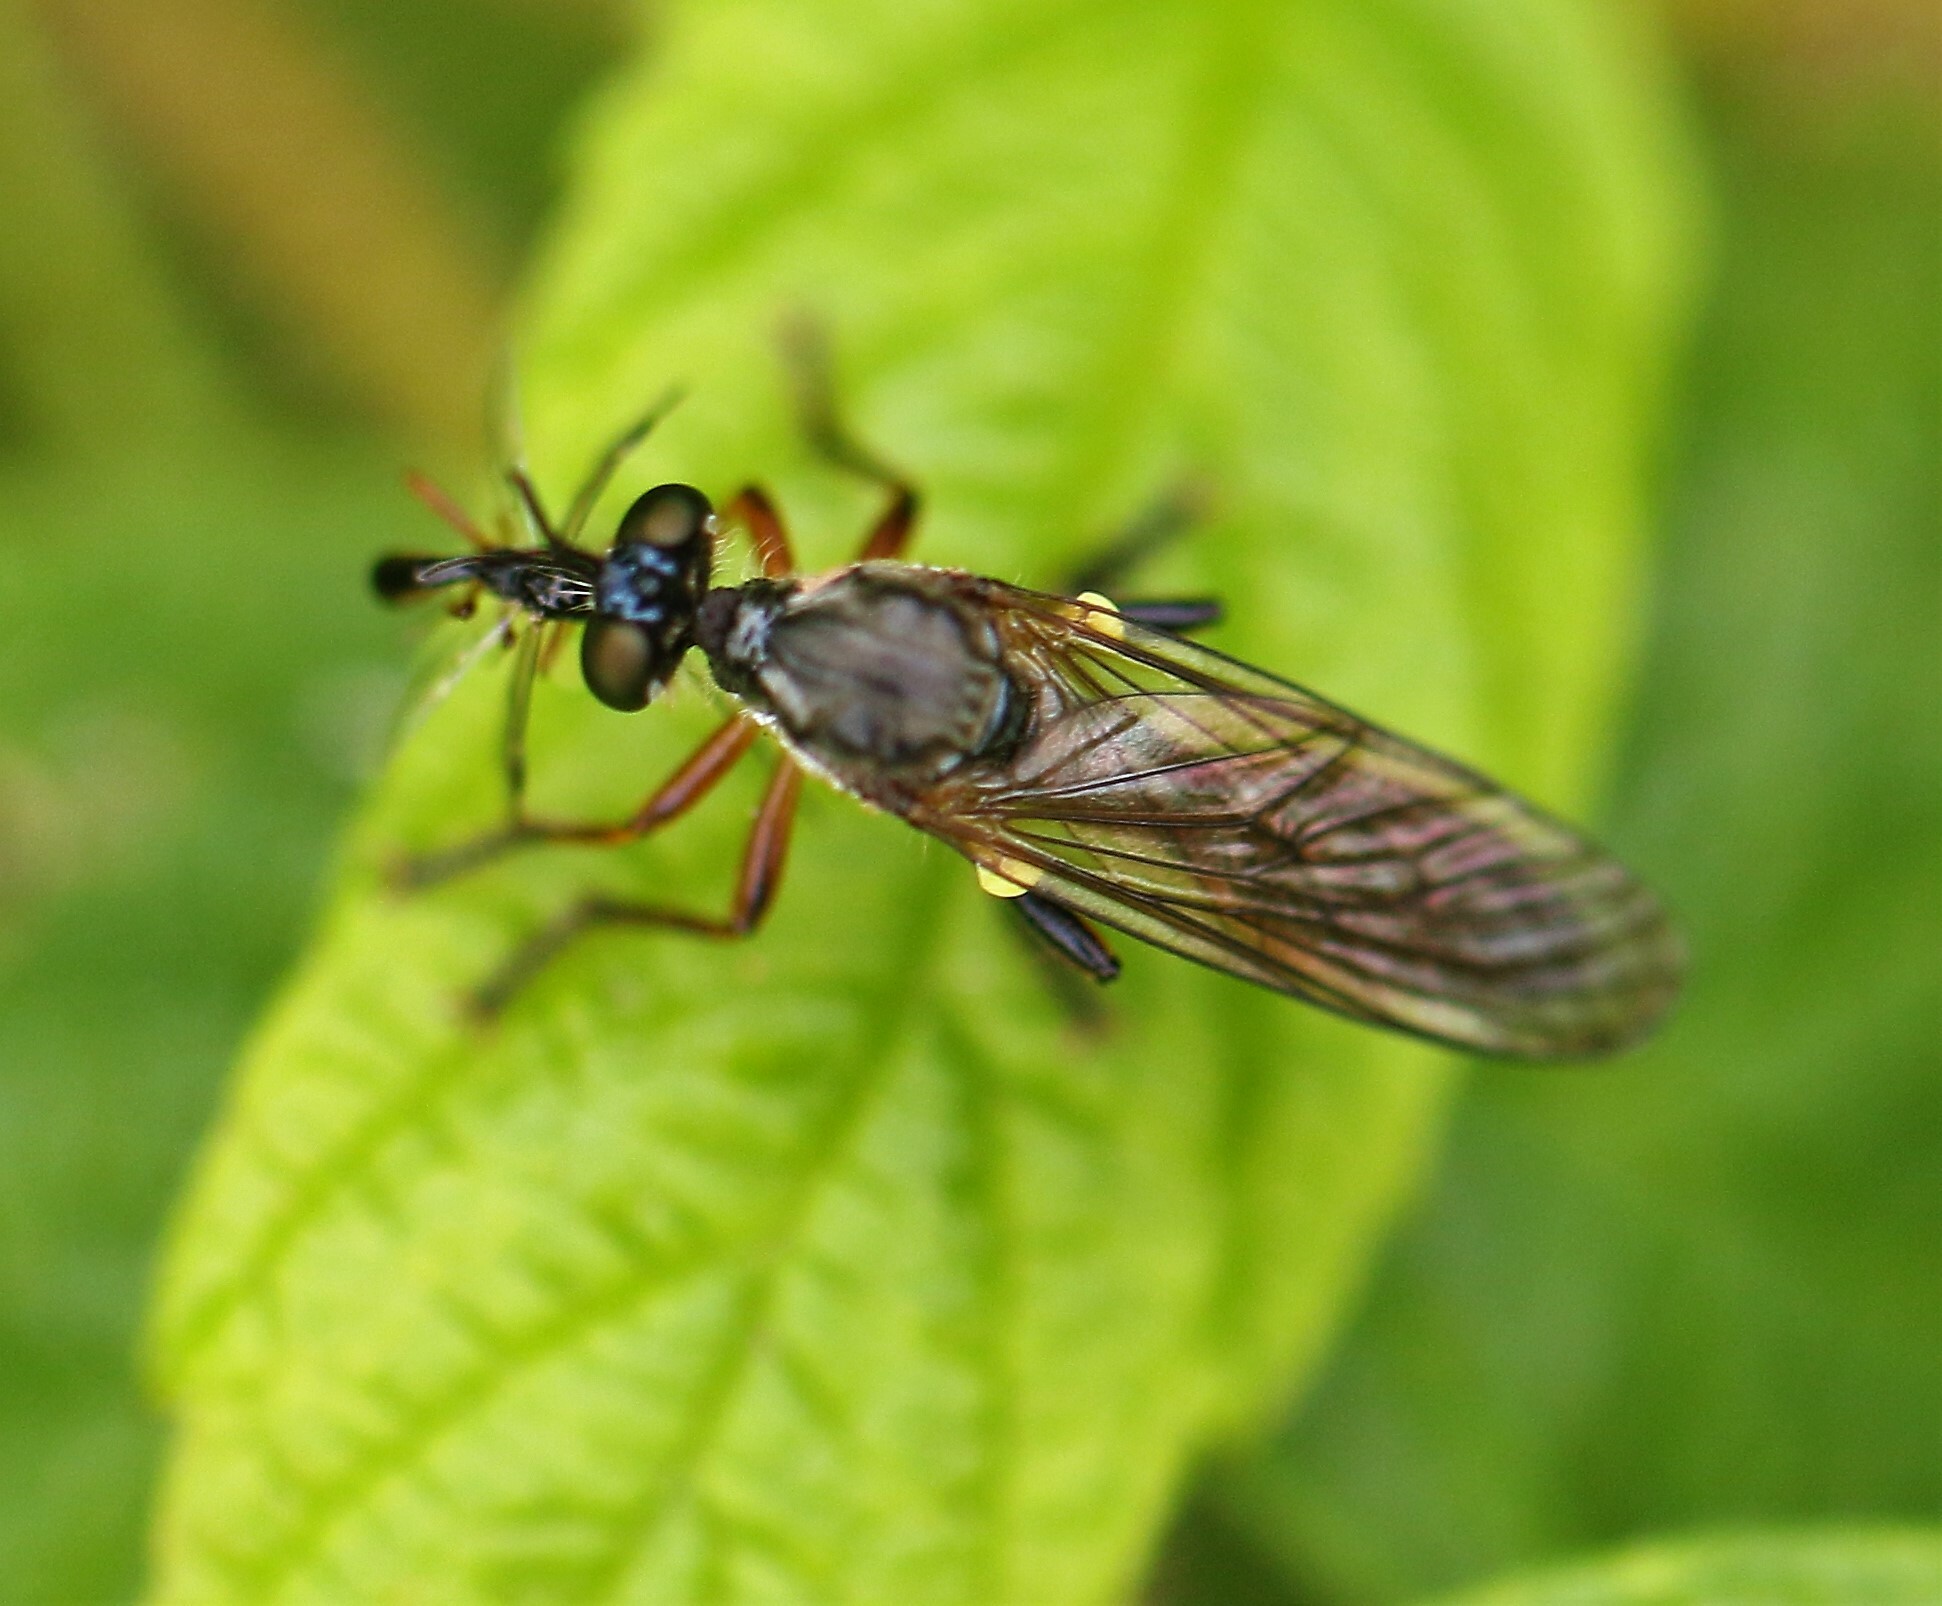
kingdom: Animalia
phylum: Arthropoda
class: Insecta
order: Diptera
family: Asilidae
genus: Dioctria
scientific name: Dioctria hyalipennis
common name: Stripe-legged robberfly
